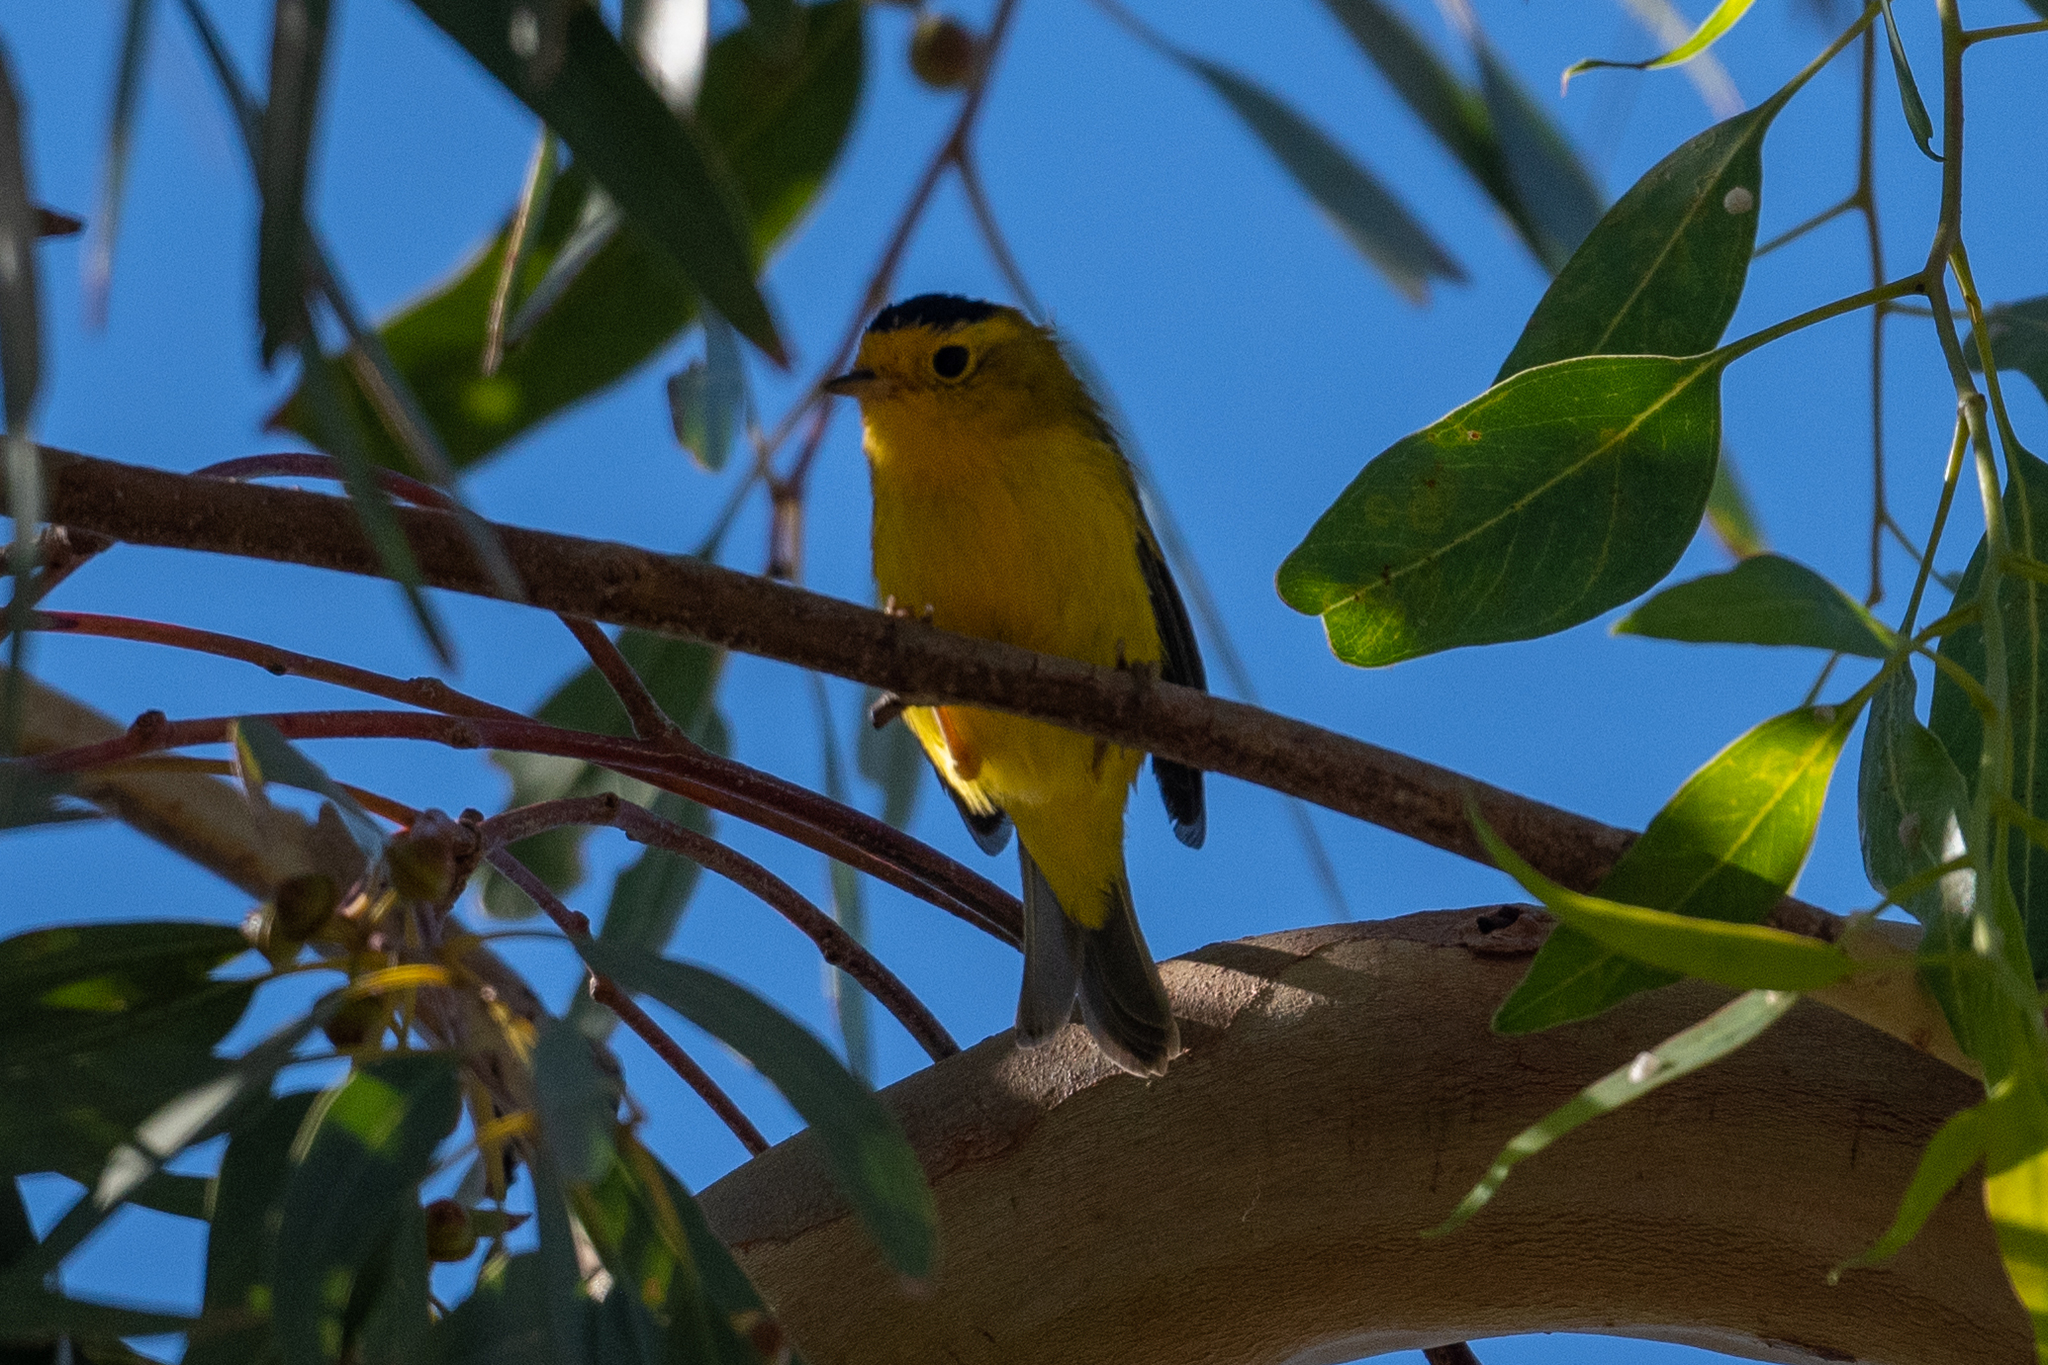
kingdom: Animalia
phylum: Chordata
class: Aves
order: Passeriformes
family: Parulidae
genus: Cardellina
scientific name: Cardellina pusilla
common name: Wilson's warbler
